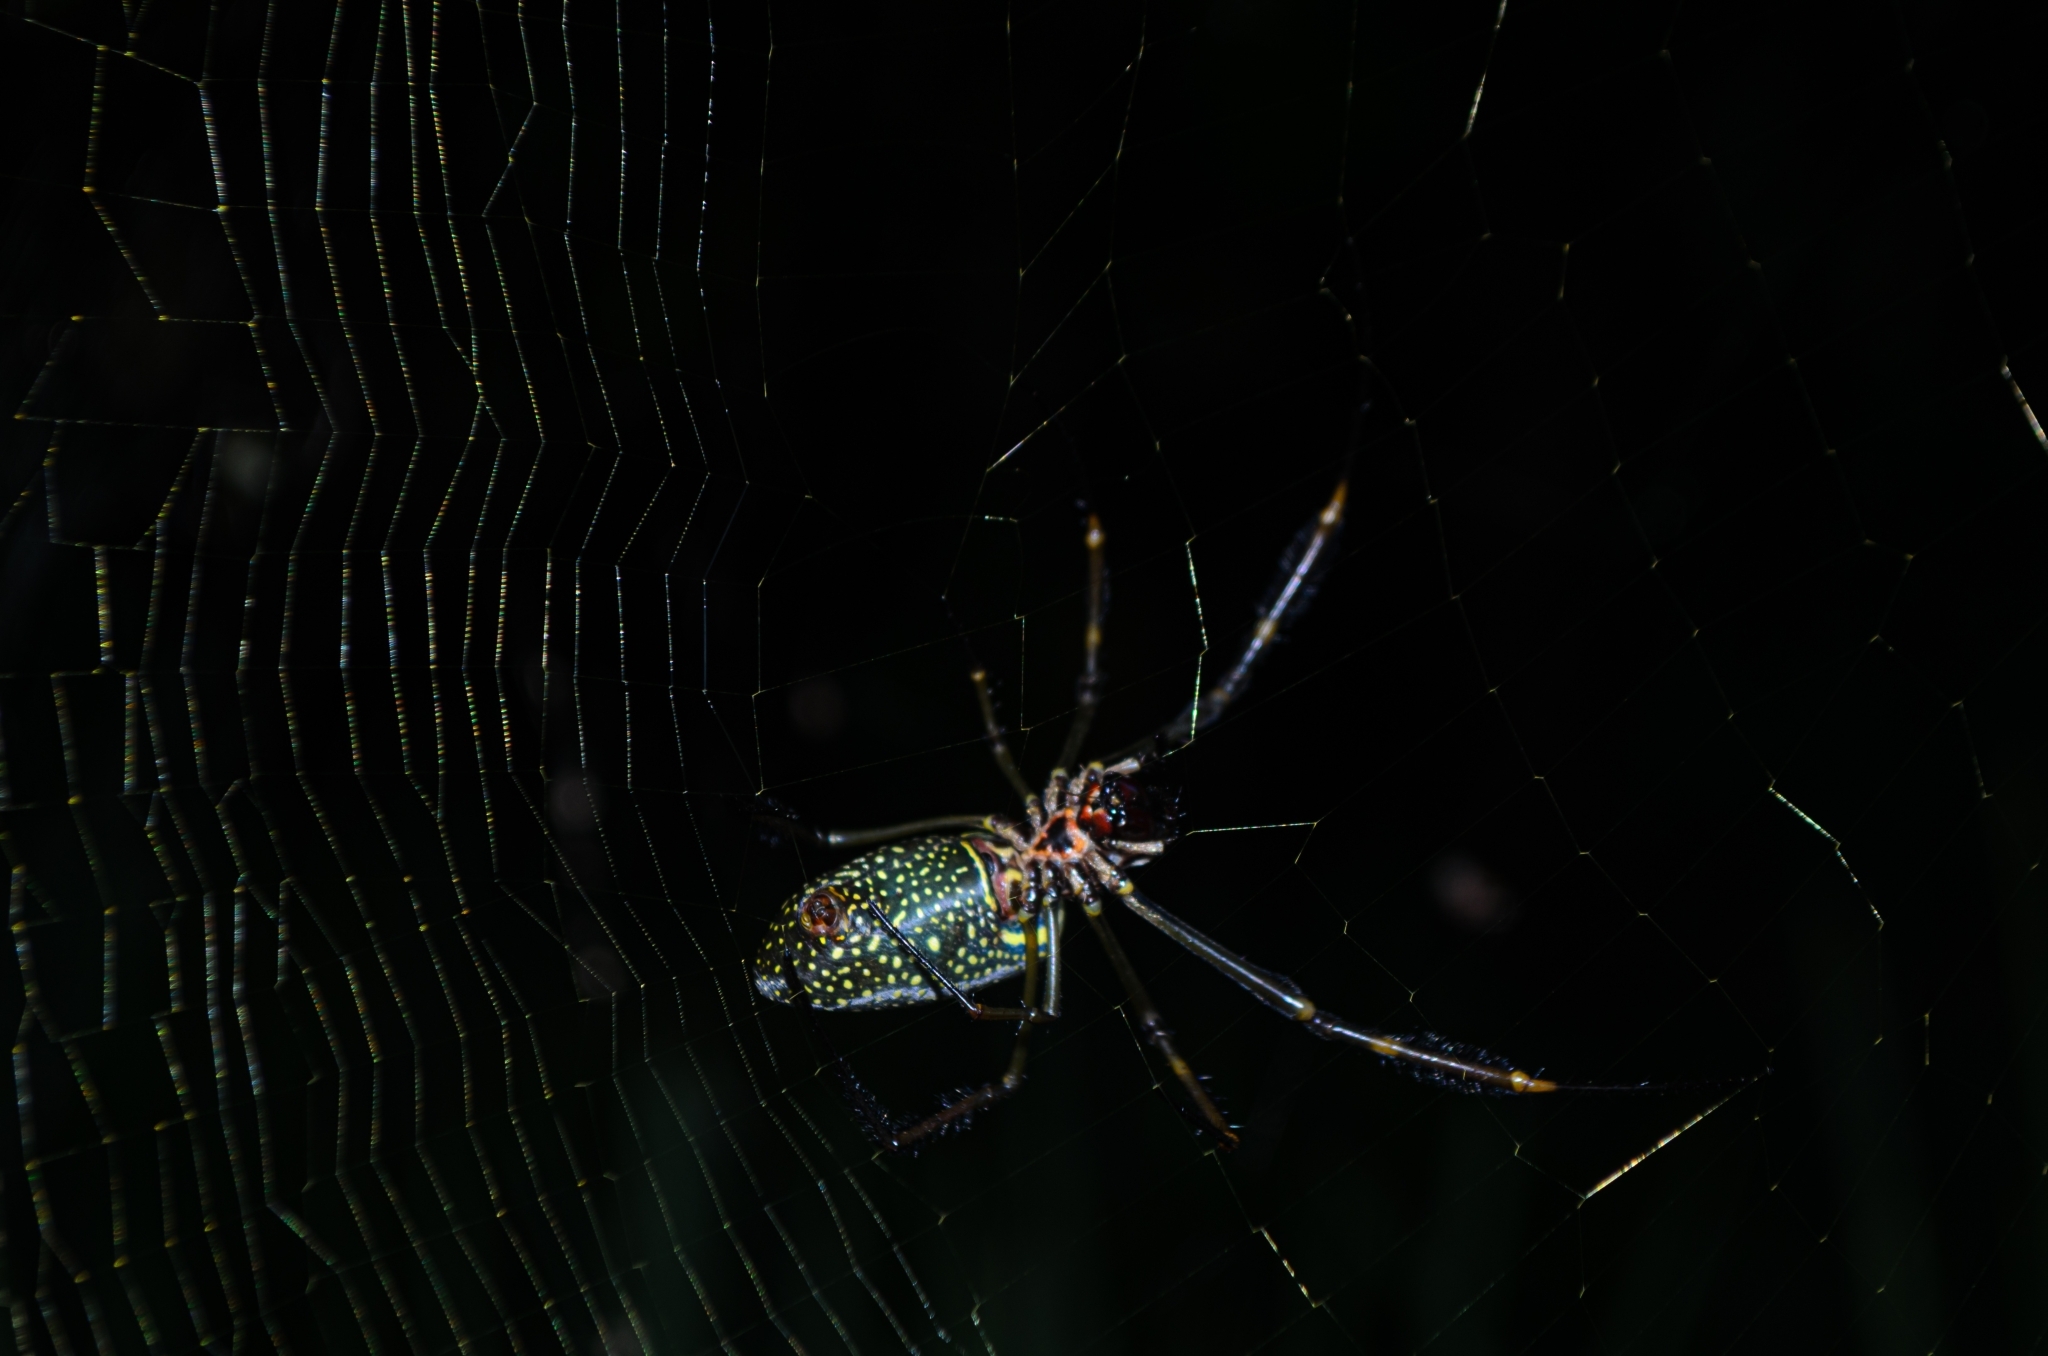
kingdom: Animalia
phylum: Arthropoda
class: Arachnida
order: Araneae
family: Araneidae
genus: Trichonephila
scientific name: Trichonephila clavipes
